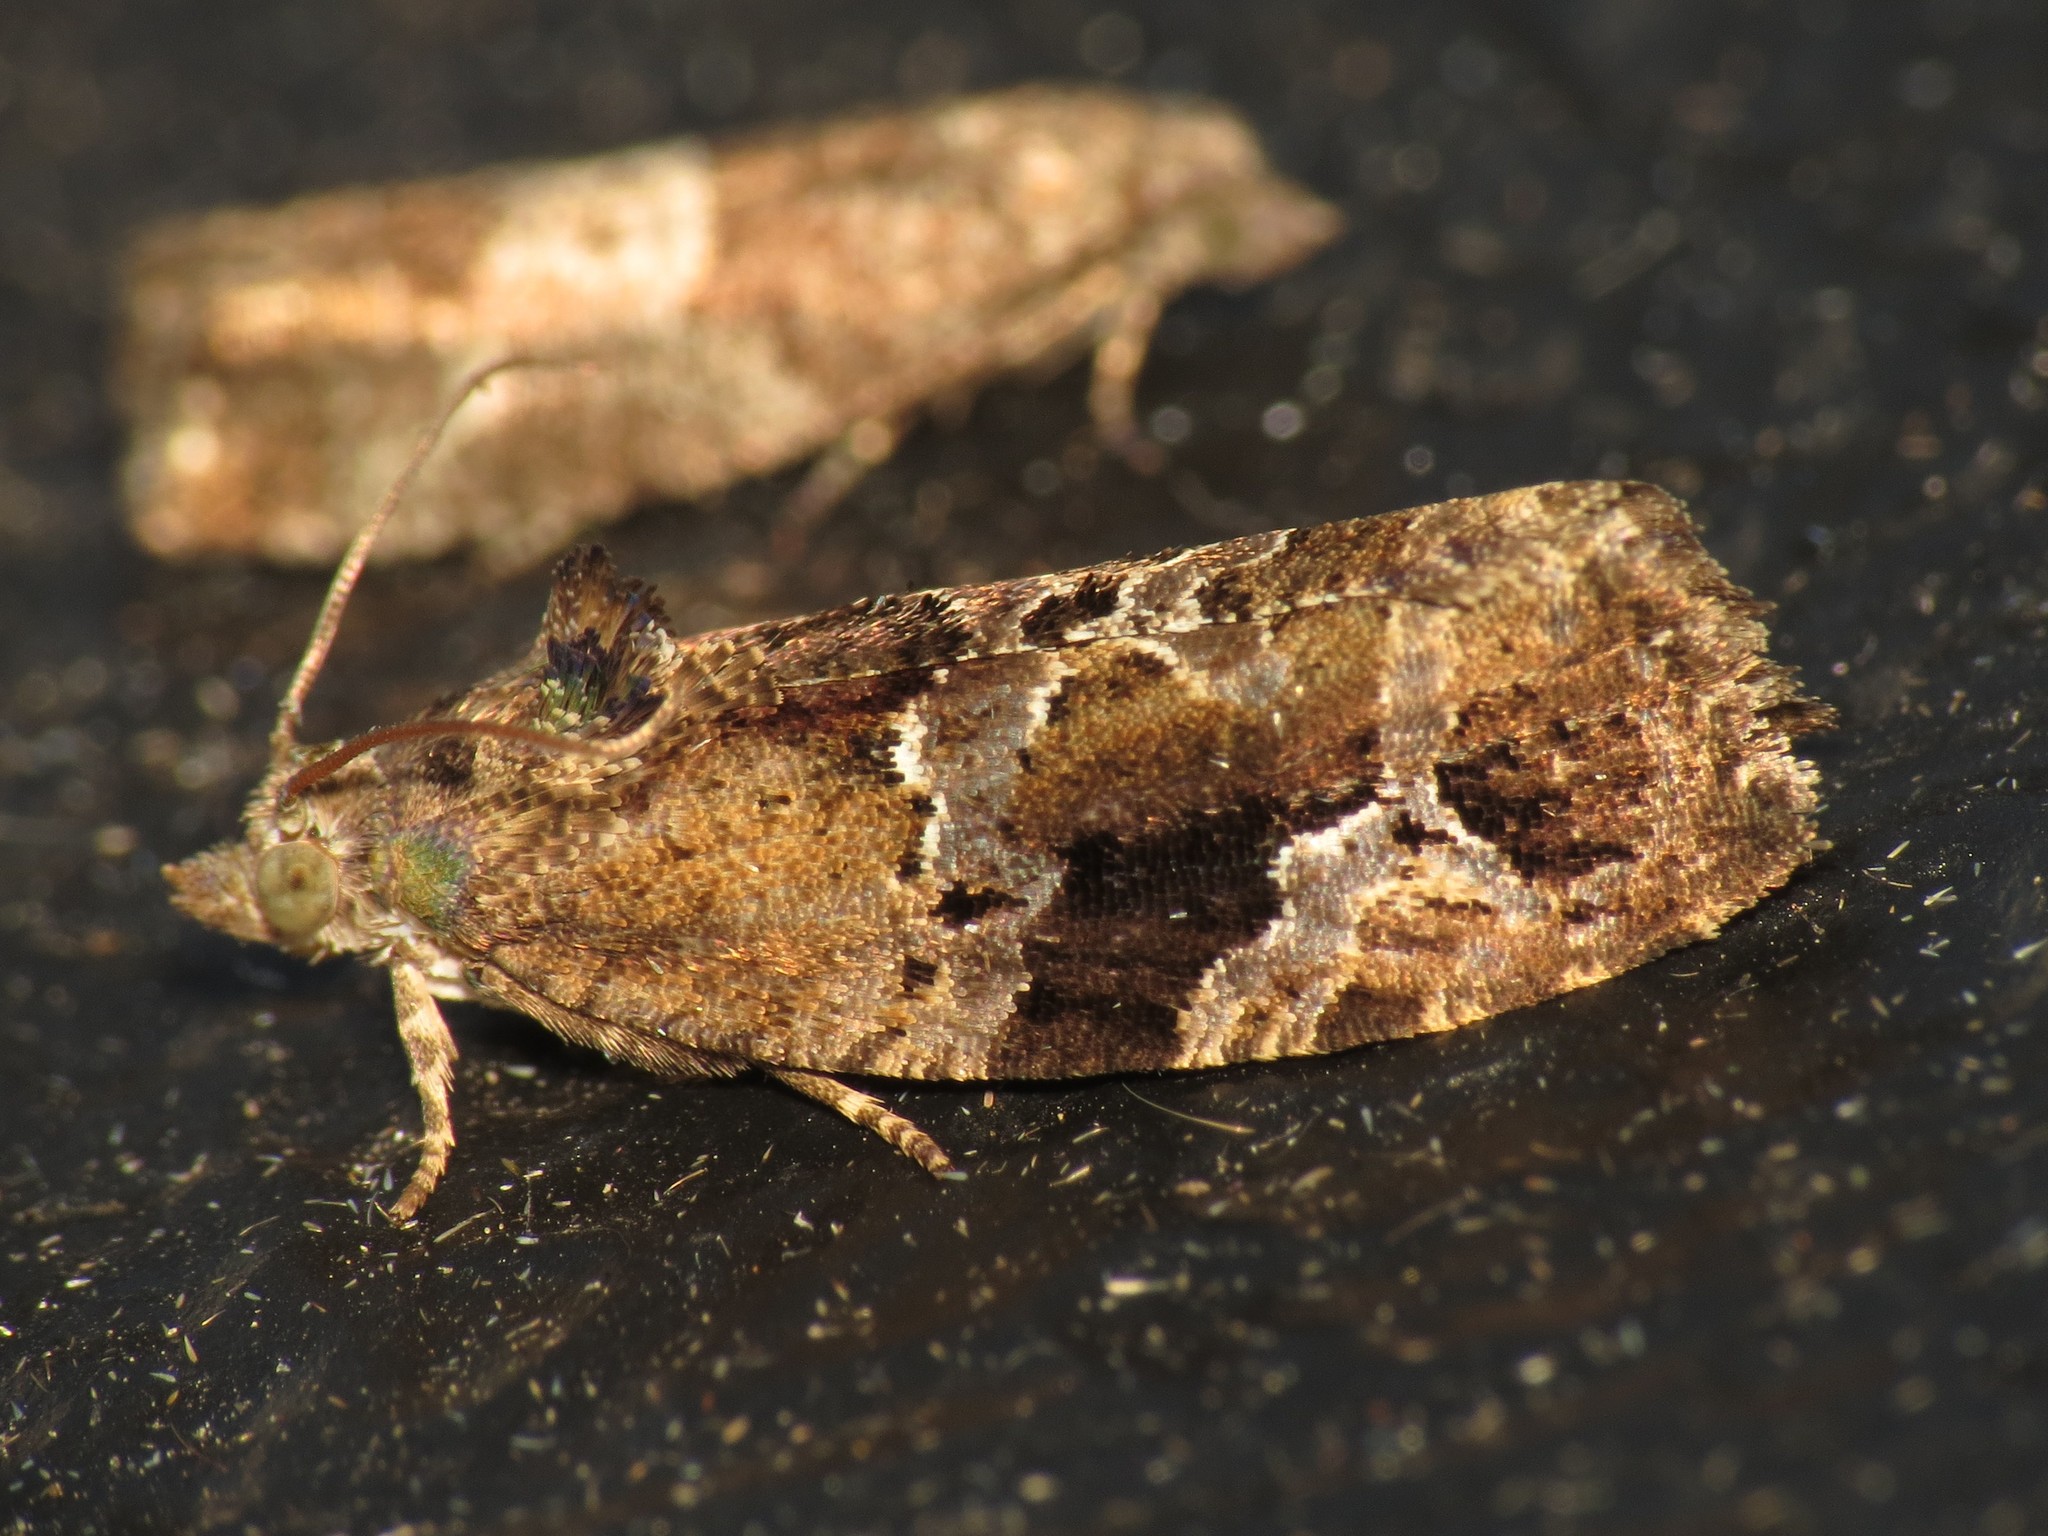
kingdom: Animalia
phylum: Arthropoda
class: Insecta
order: Lepidoptera
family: Tortricidae
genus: Eudemis
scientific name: Eudemis porphyrana
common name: Apple marble
